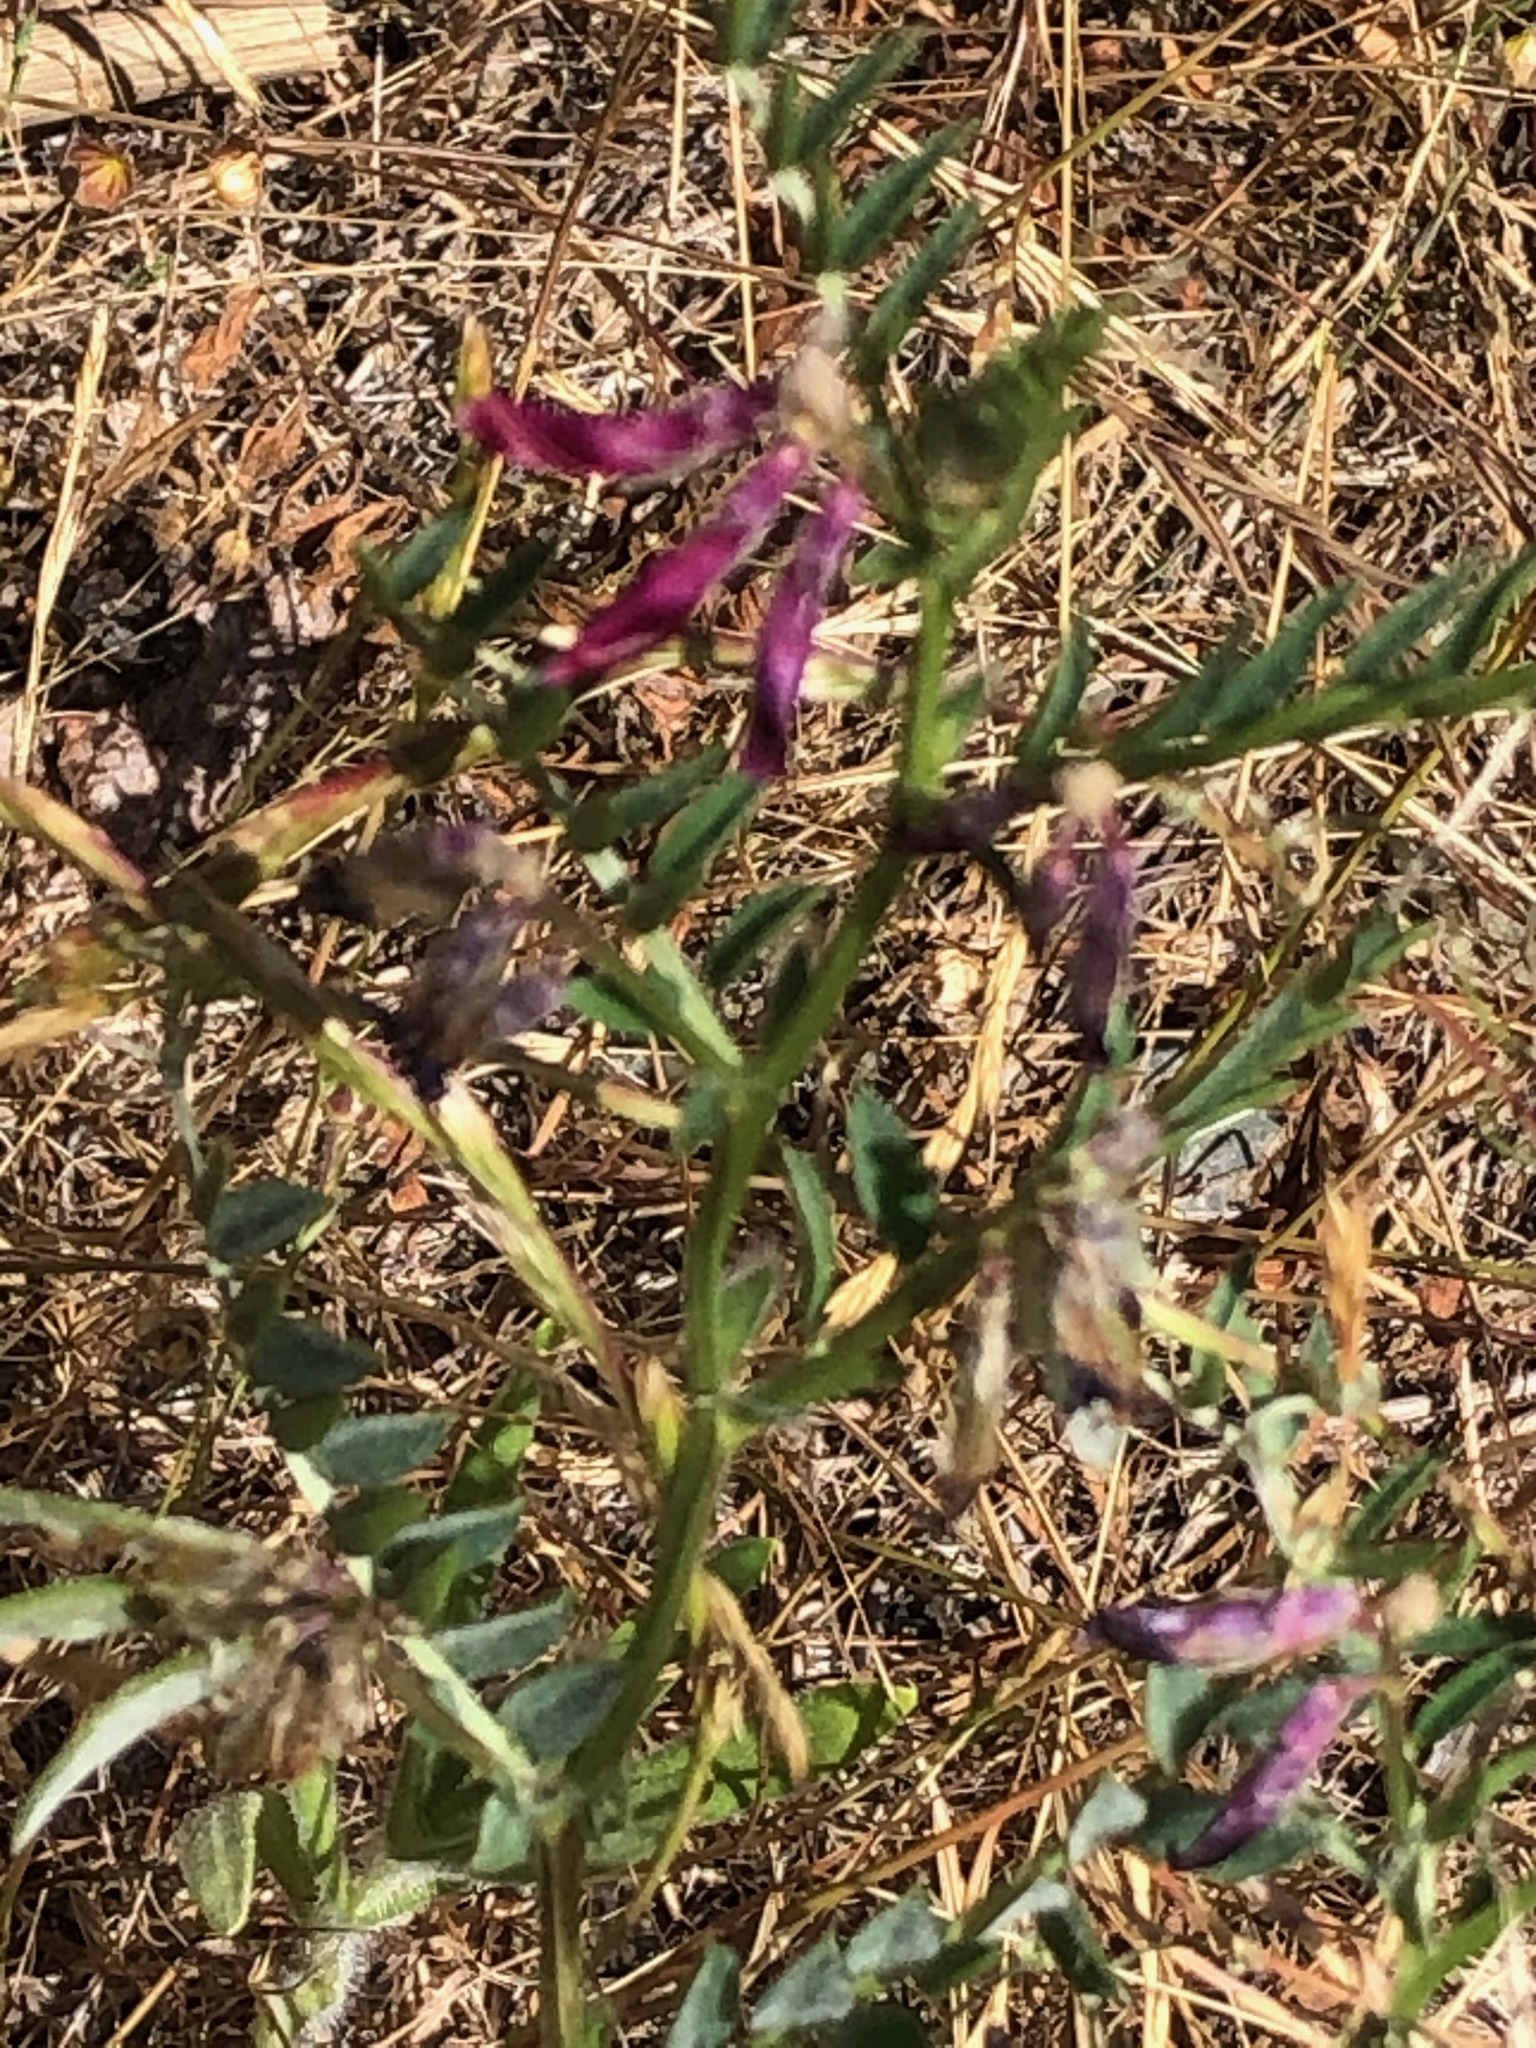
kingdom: Plantae
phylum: Tracheophyta
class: Magnoliopsida
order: Fabales
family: Fabaceae
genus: Vicia
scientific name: Vicia benghalensis
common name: Purple vetch
